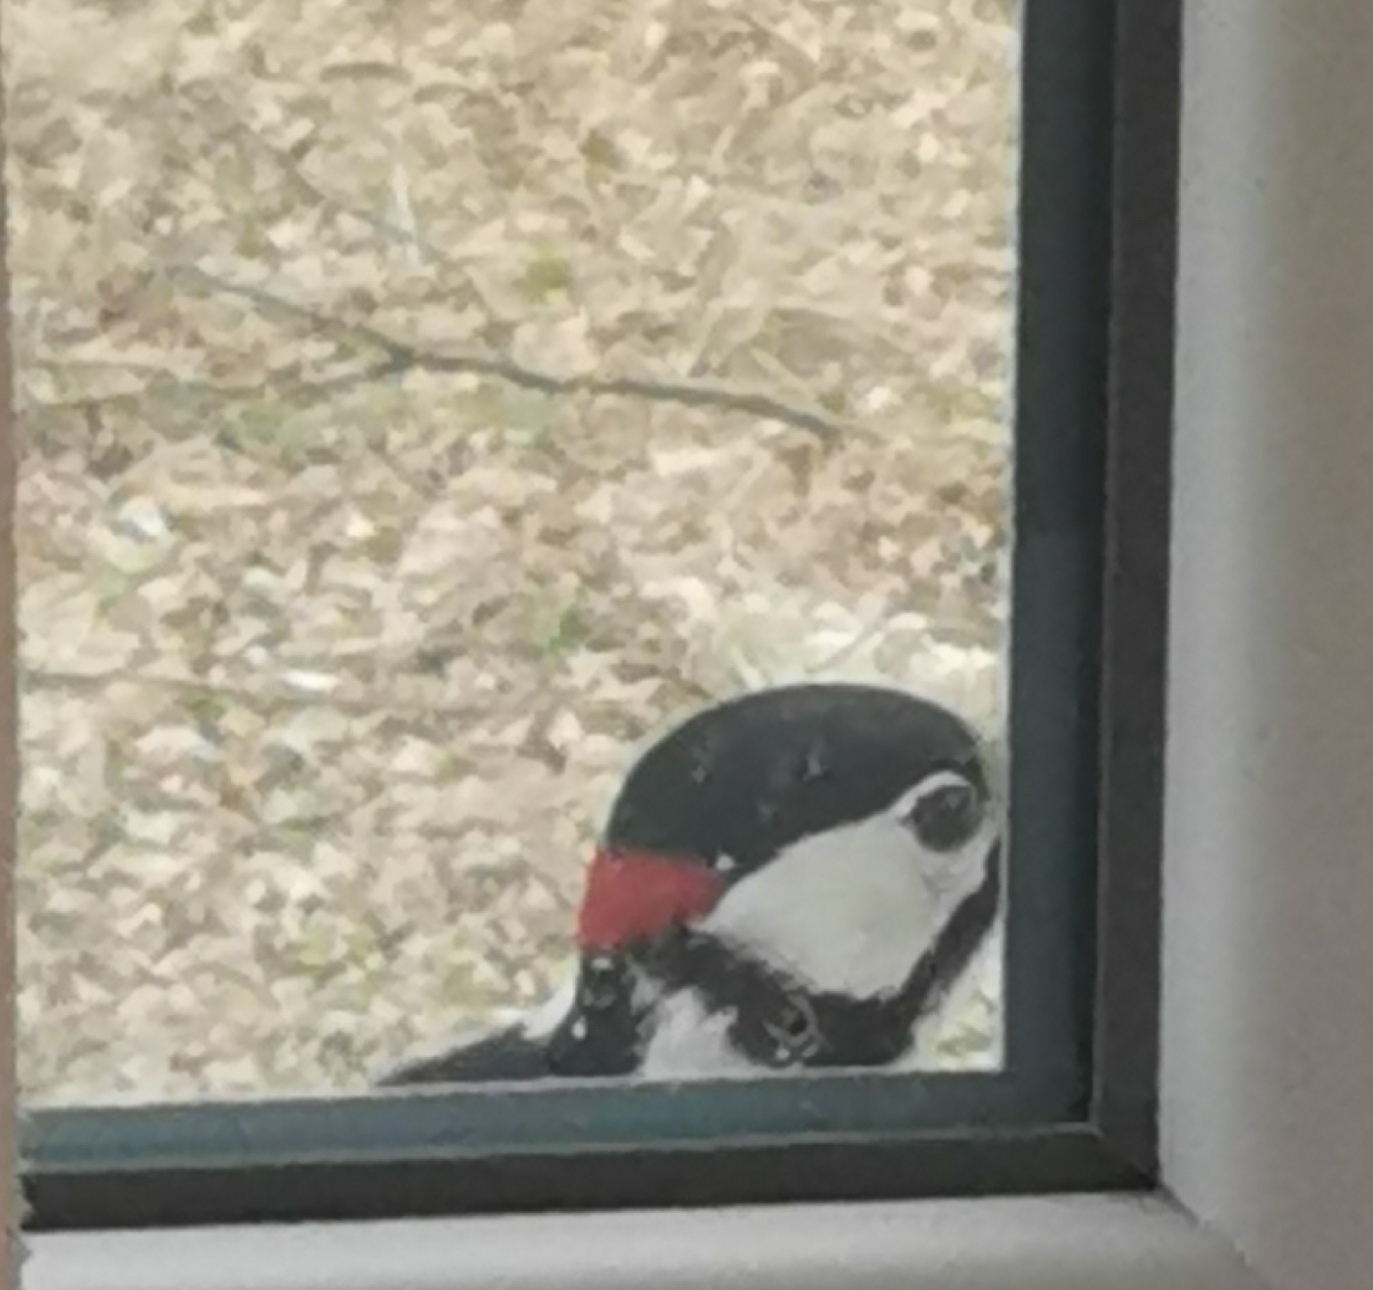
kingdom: Animalia
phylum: Chordata
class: Aves
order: Piciformes
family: Picidae
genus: Dendrocopos
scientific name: Dendrocopos major
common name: Great spotted woodpecker
